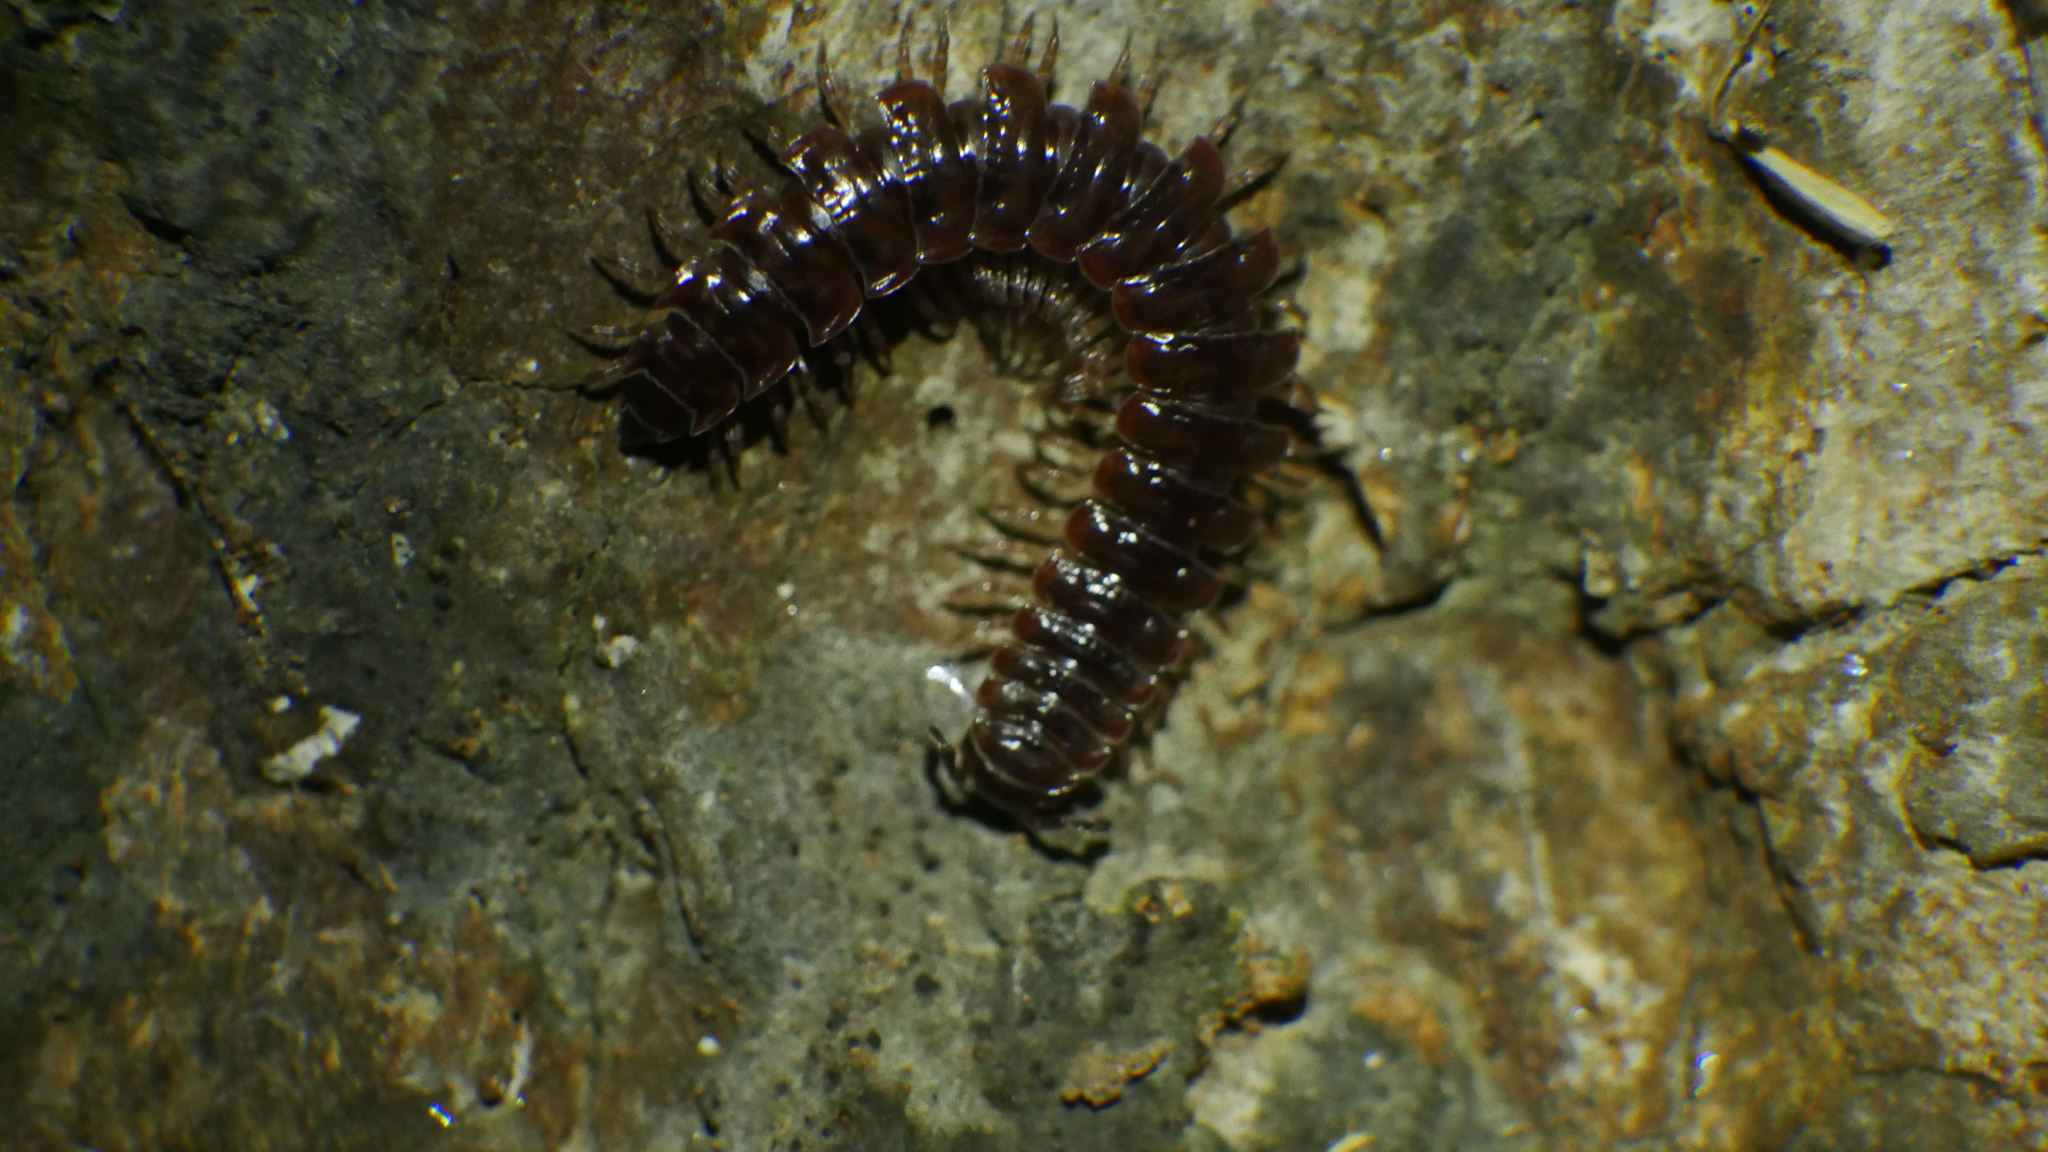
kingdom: Animalia
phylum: Arthropoda
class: Diplopoda
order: Polydesmida
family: Polydesmidae
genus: Pseudopolydesmus
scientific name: Pseudopolydesmus serratus
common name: Common pink flat-back millipede
